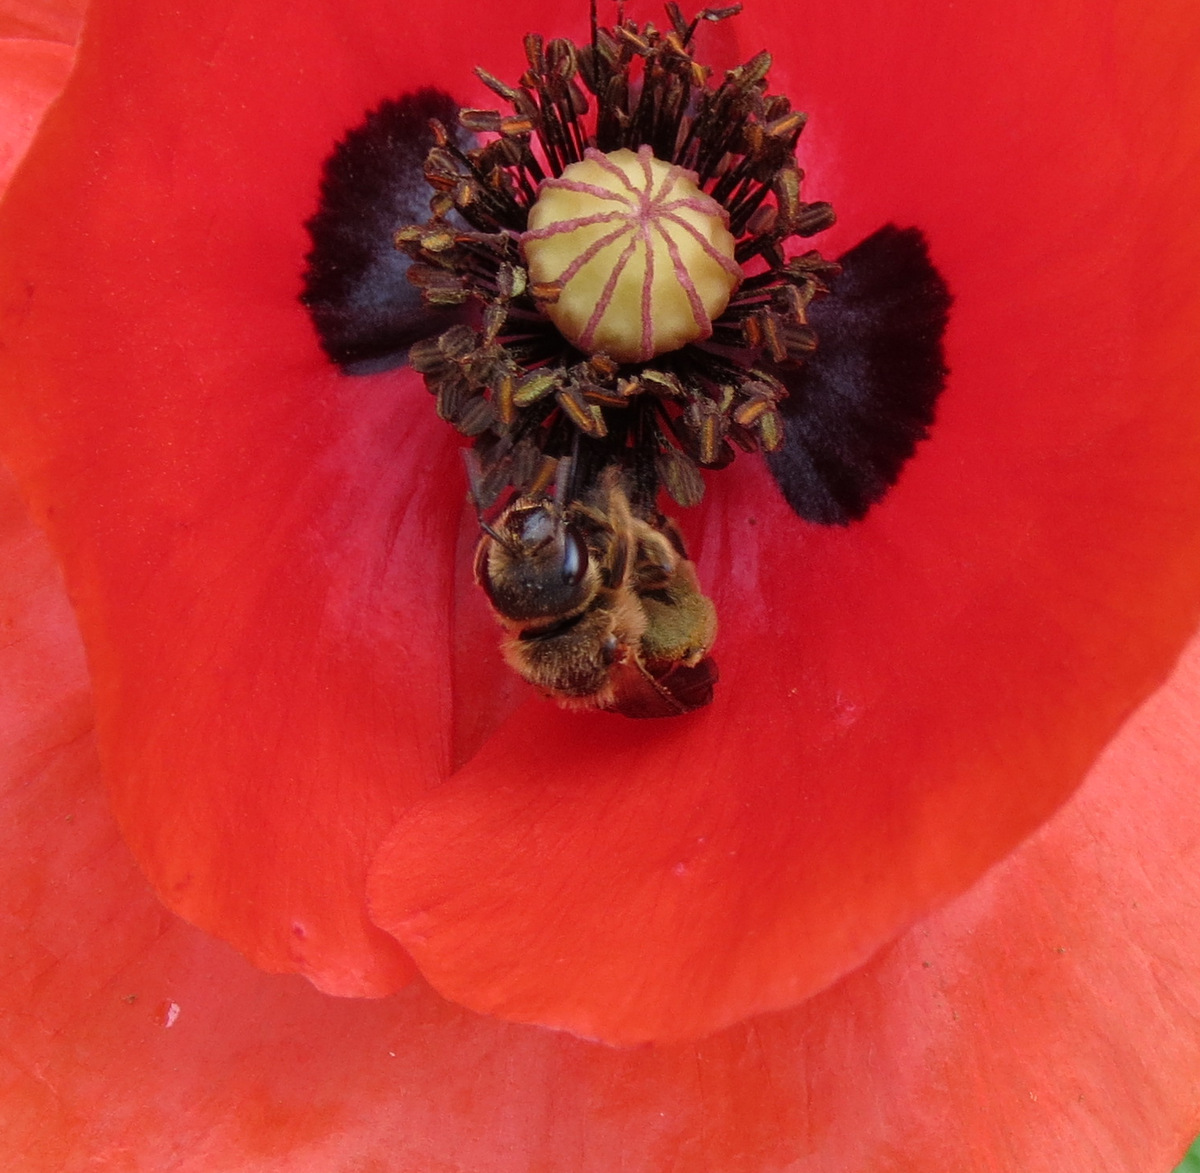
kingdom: Animalia
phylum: Arthropoda
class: Insecta
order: Hymenoptera
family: Halictidae
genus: Halictus
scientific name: Halictus scabiosae
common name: Great banded furrow bee
